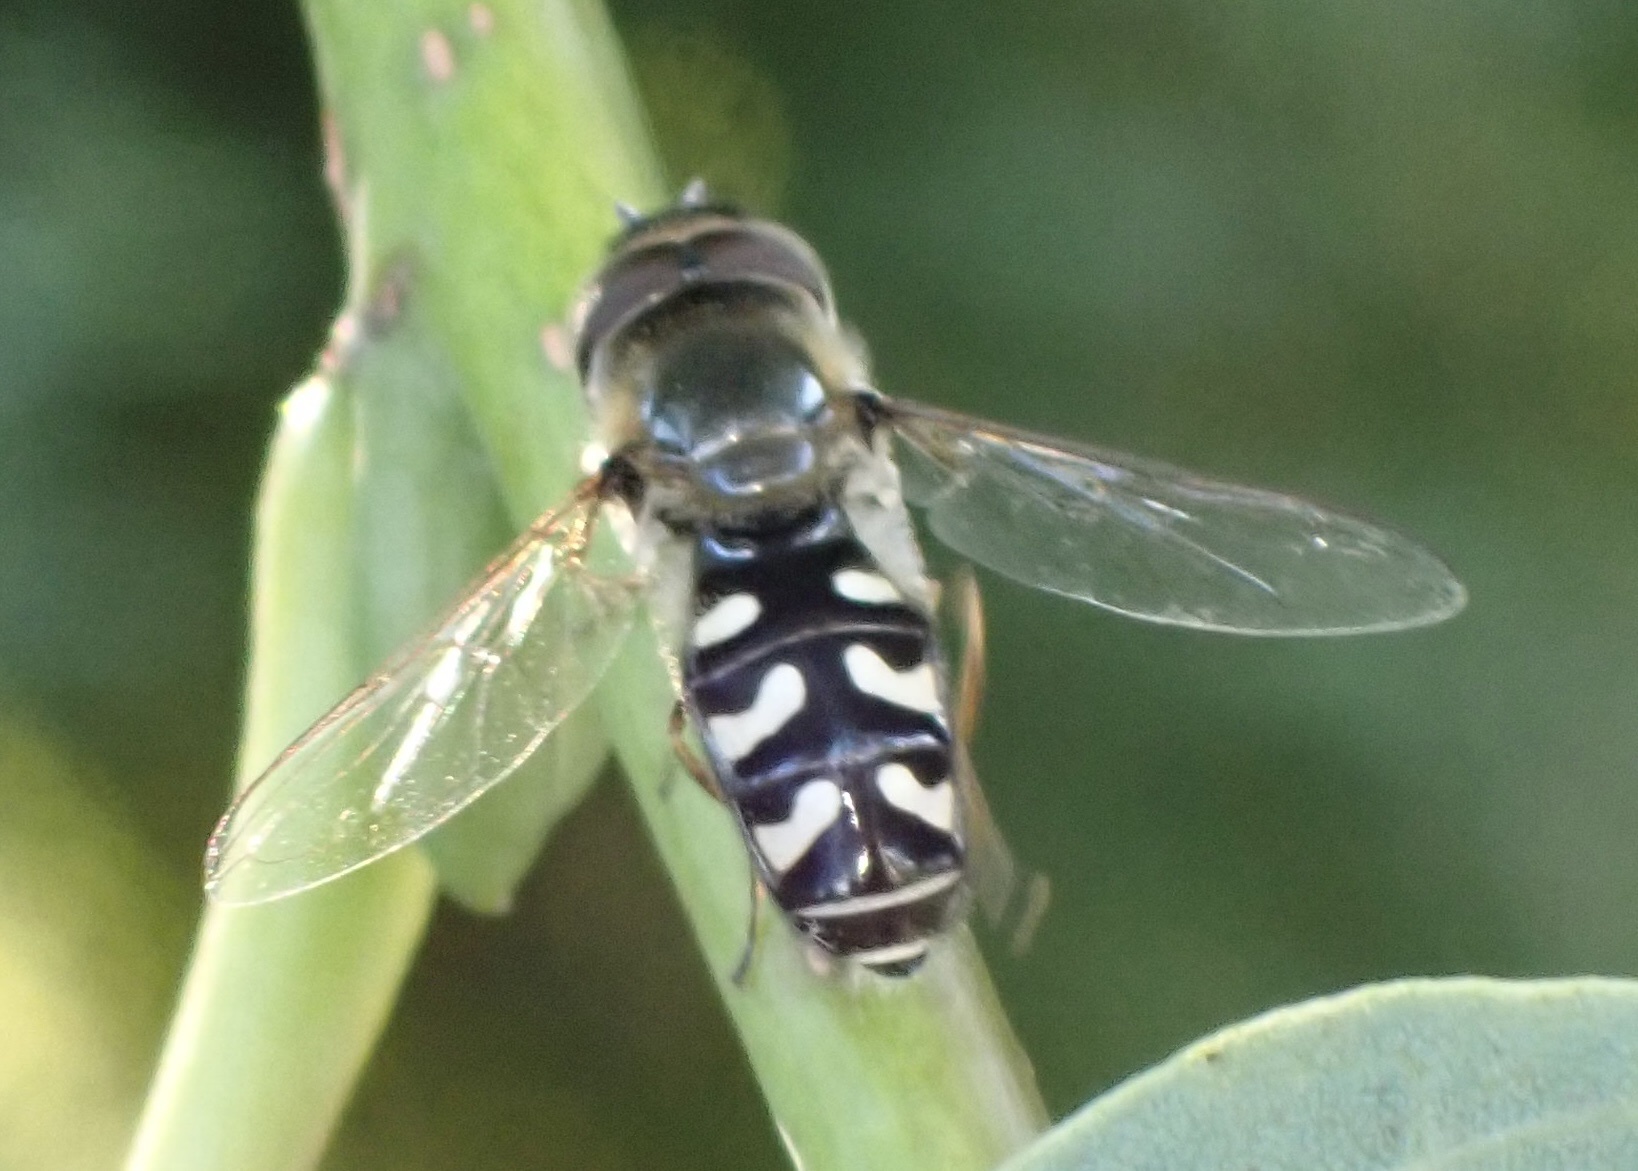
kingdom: Animalia
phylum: Arthropoda
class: Insecta
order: Diptera
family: Syrphidae
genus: Scaeva
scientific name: Scaeva pyrastri
